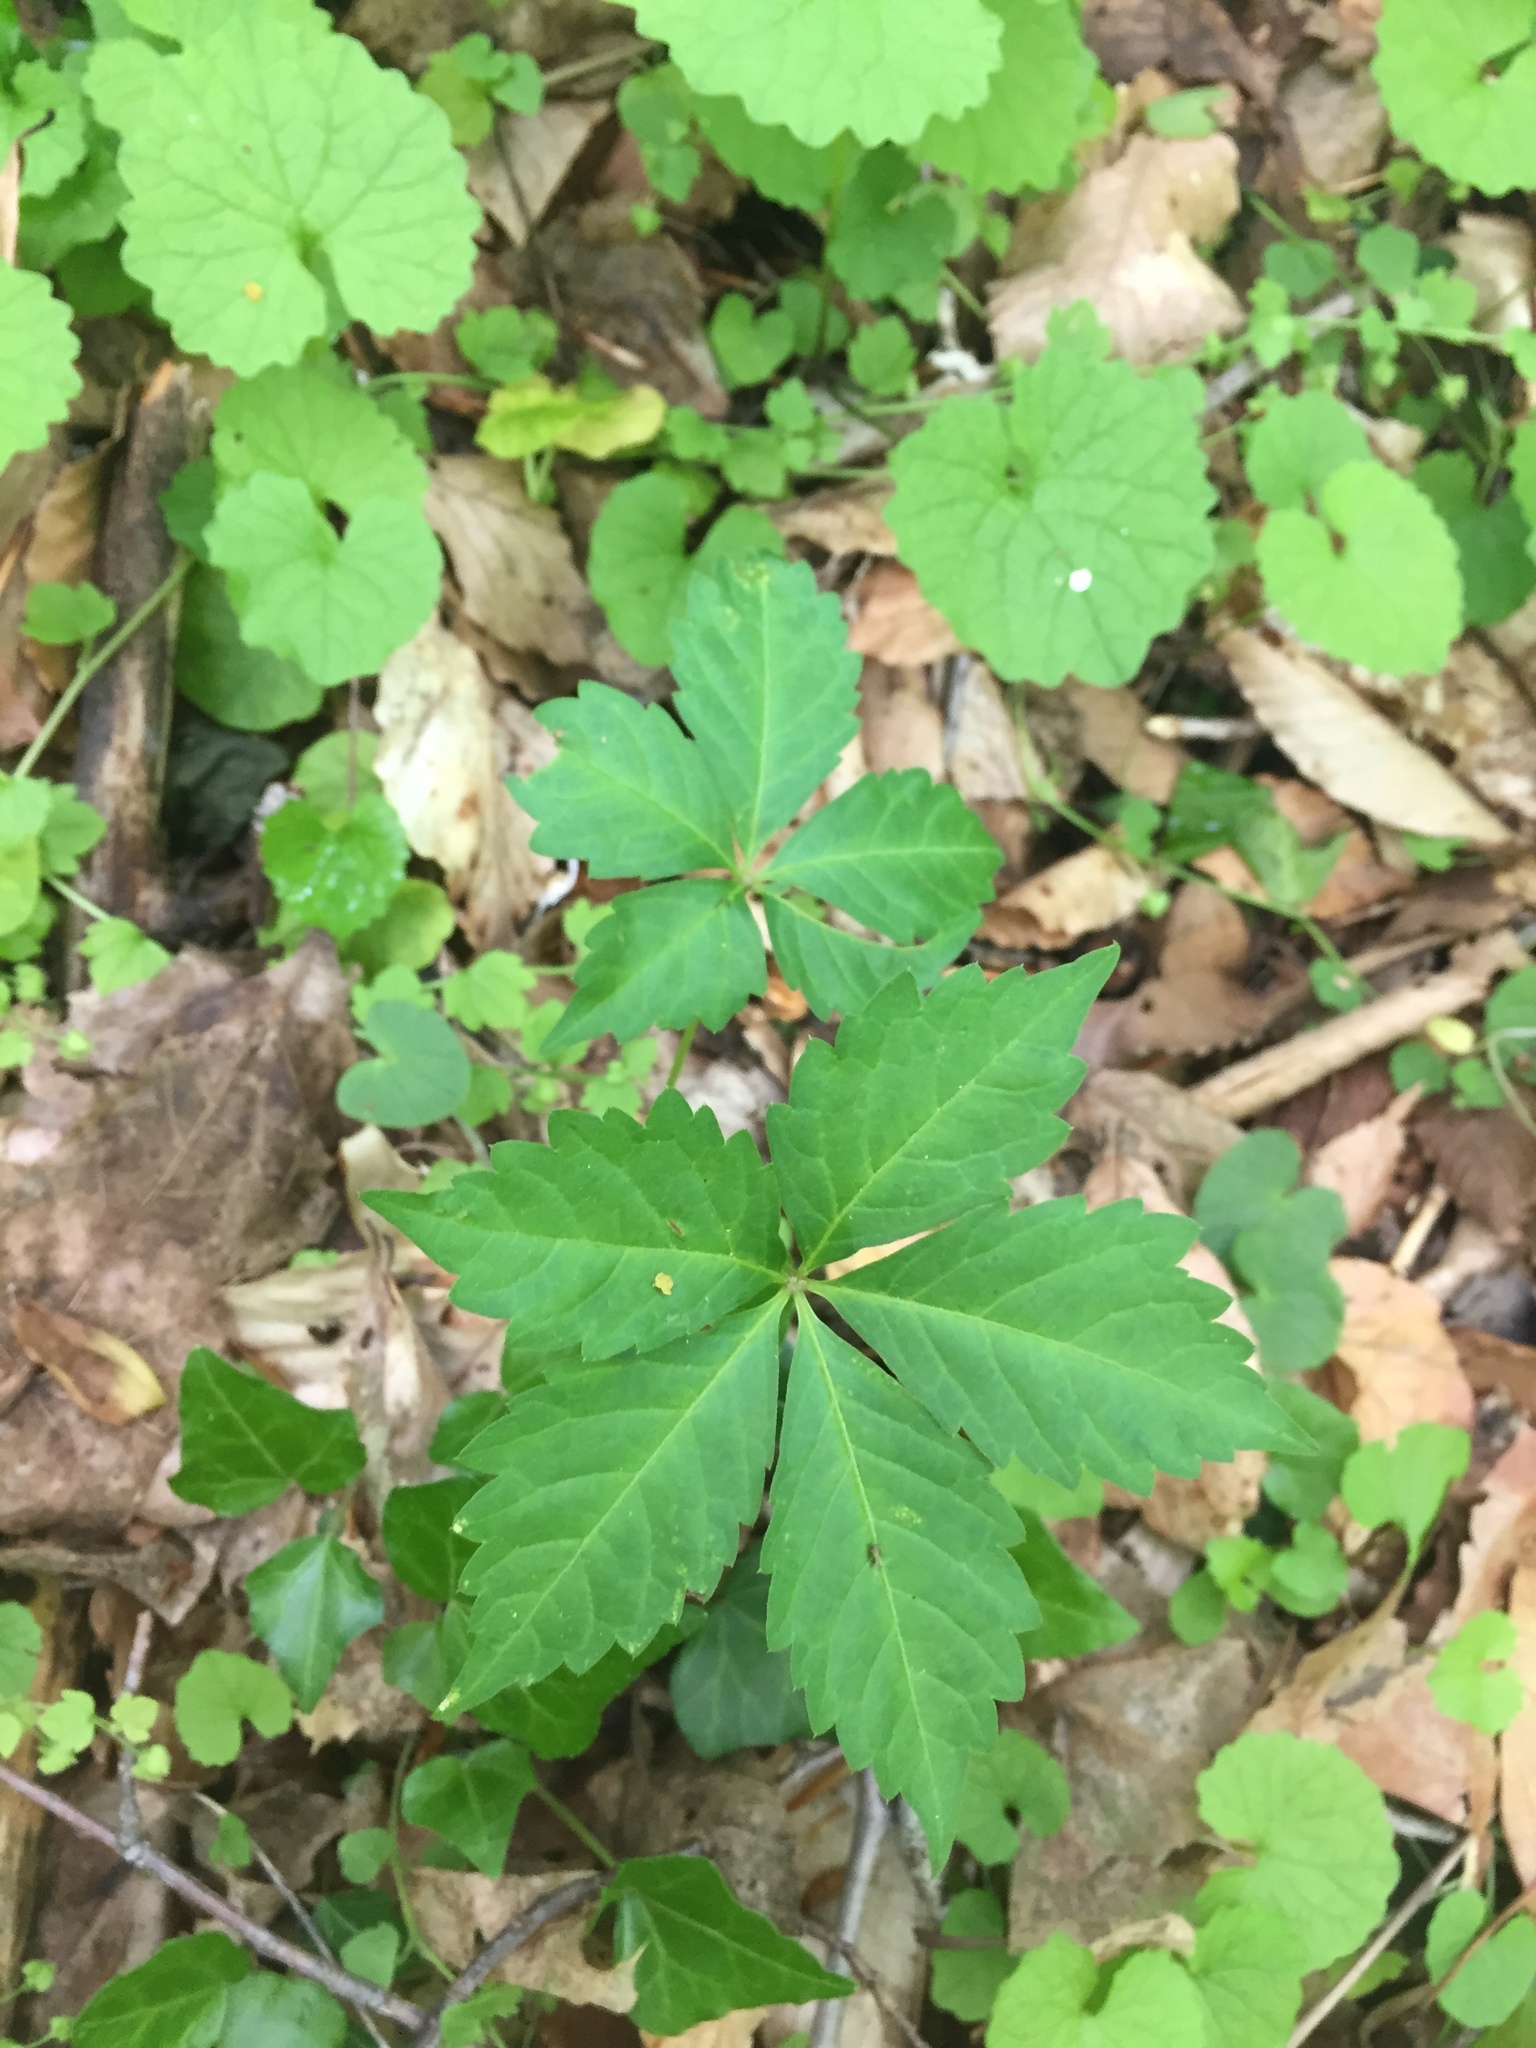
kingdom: Plantae
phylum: Tracheophyta
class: Magnoliopsida
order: Vitales
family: Vitaceae
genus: Parthenocissus
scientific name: Parthenocissus quinquefolia
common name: Virginia-creeper
